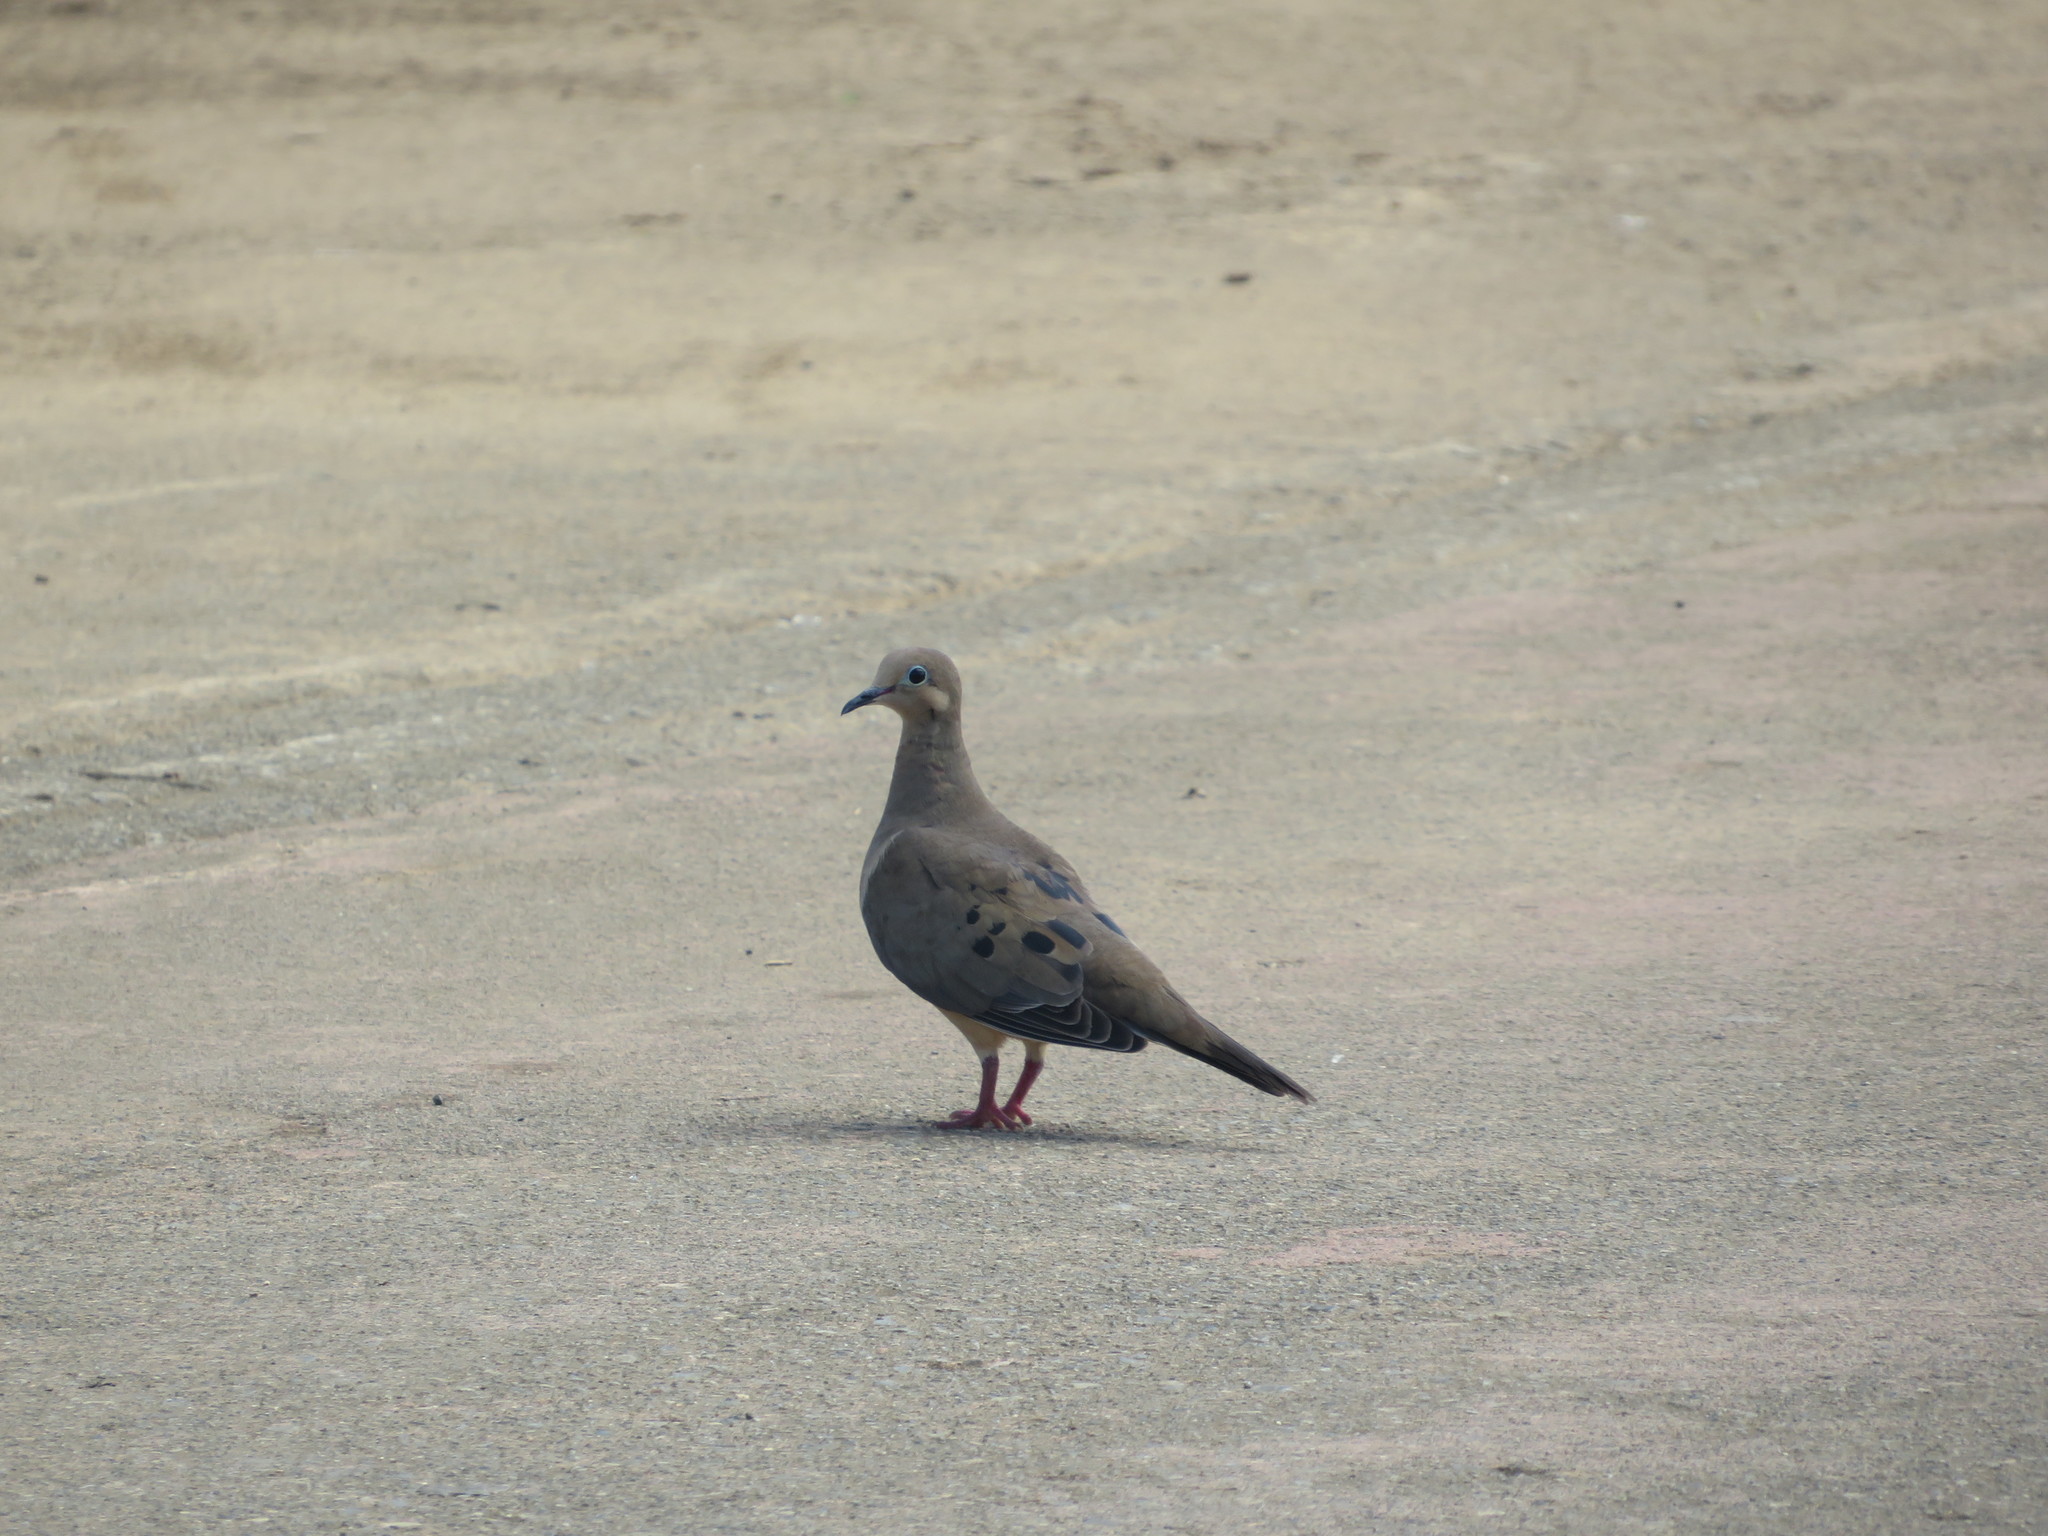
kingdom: Animalia
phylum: Chordata
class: Aves
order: Columbiformes
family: Columbidae
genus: Zenaida
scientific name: Zenaida macroura
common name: Mourning dove
